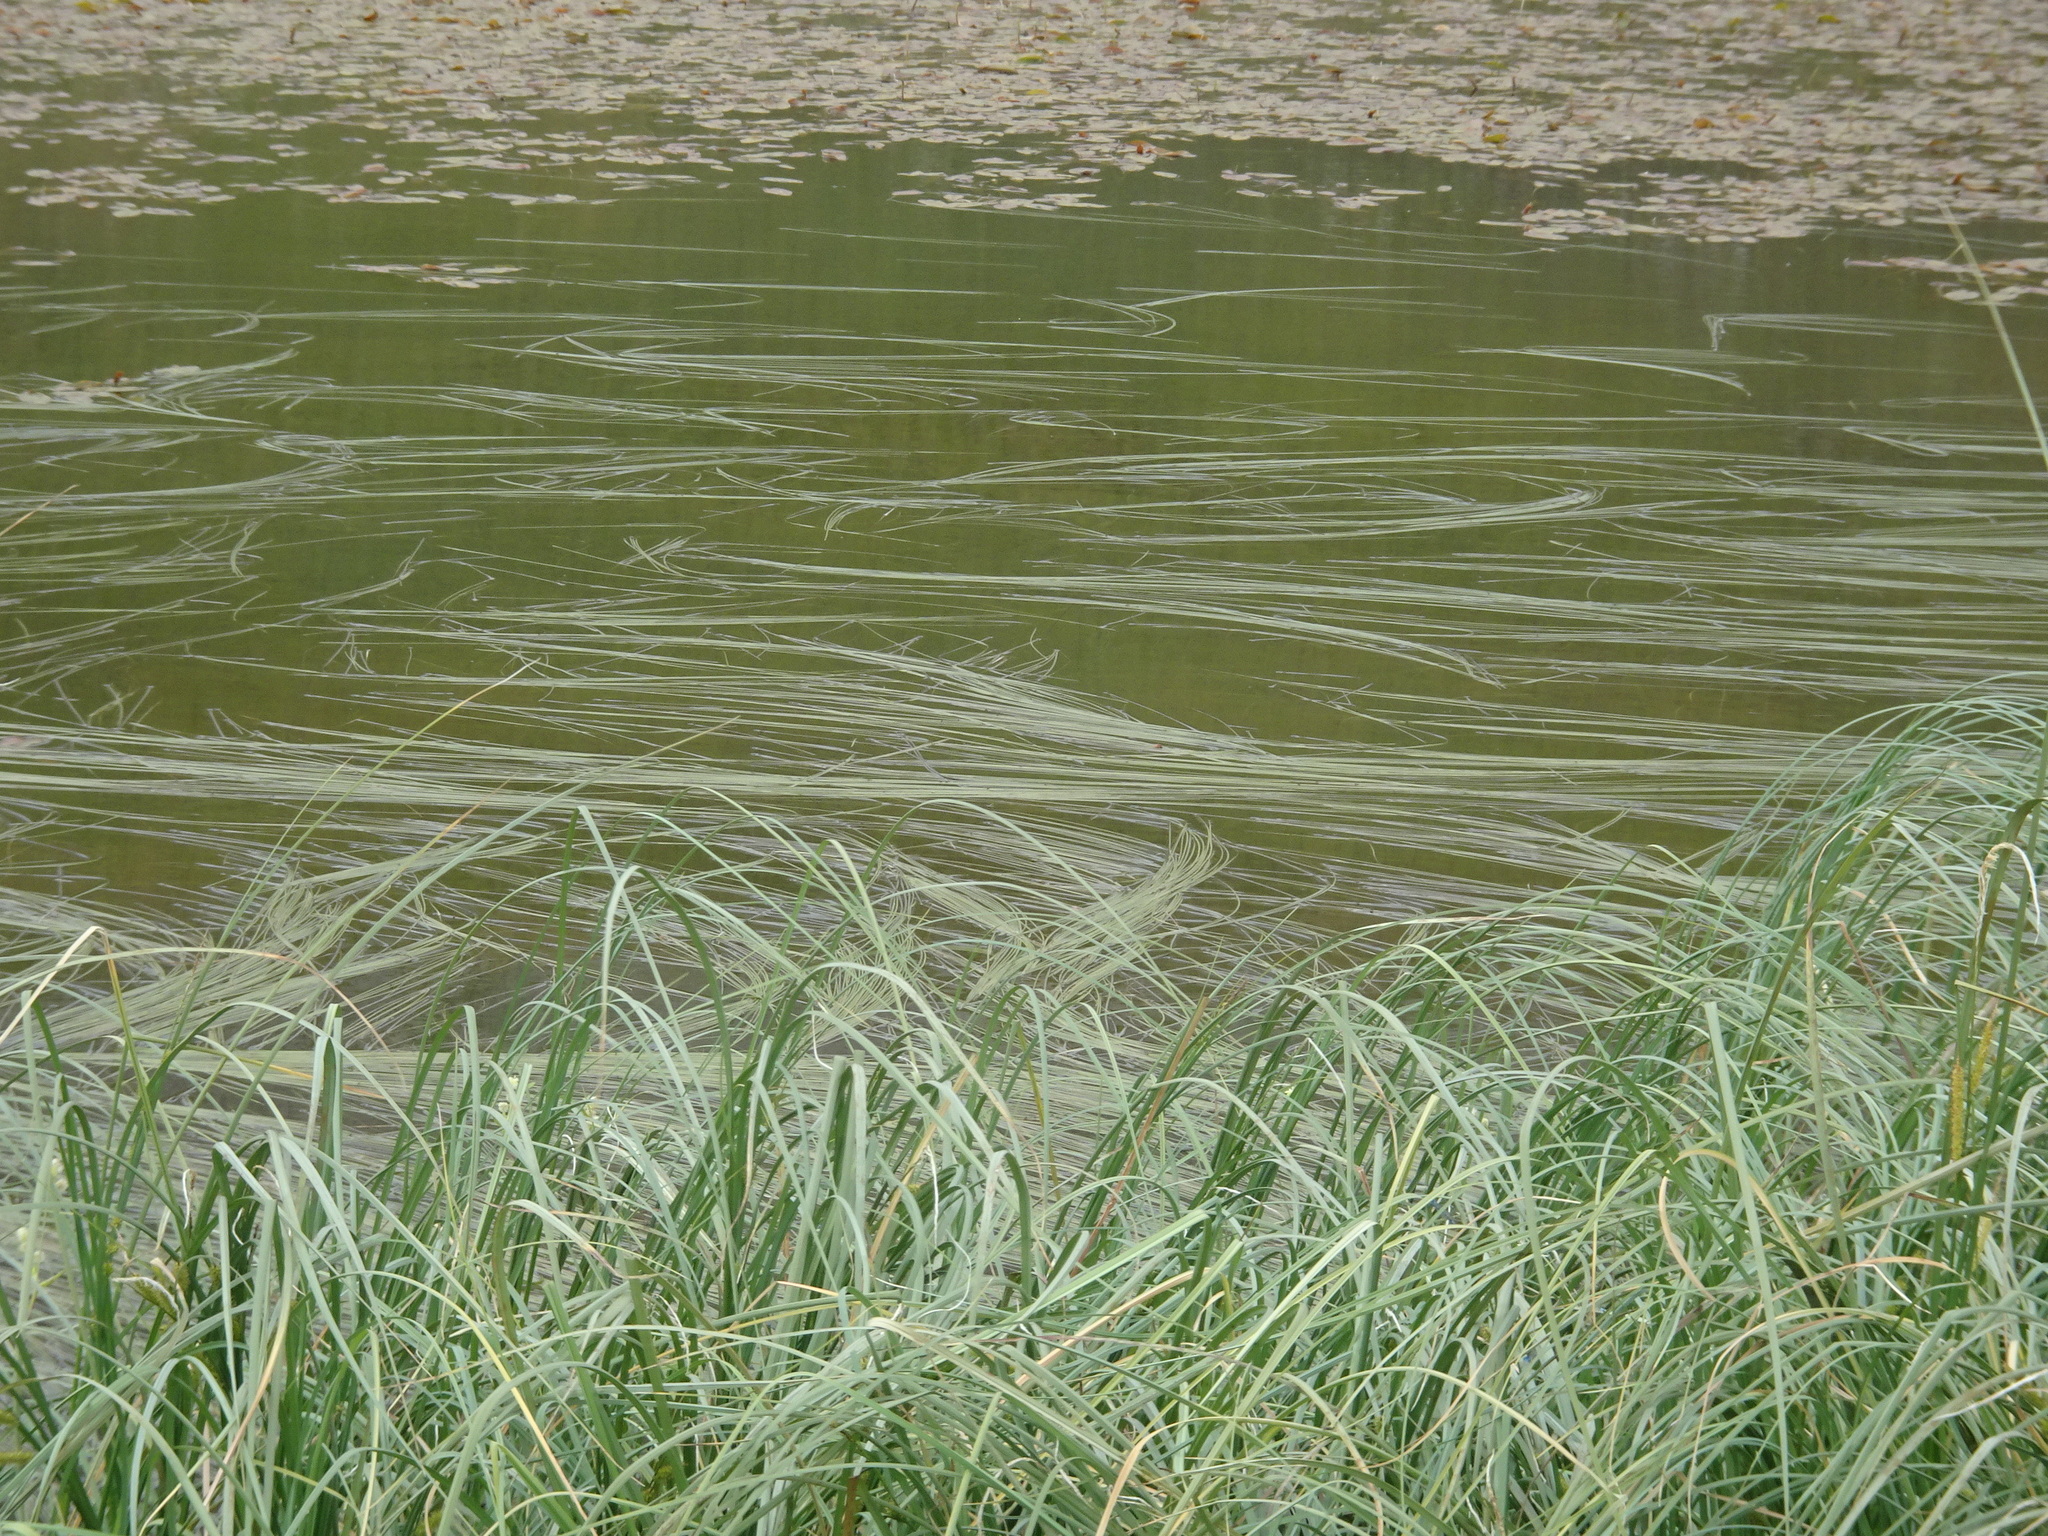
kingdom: Plantae
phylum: Tracheophyta
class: Liliopsida
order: Poales
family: Typhaceae
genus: Sparganium
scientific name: Sparganium angustifolium
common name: Floating bur-reed
